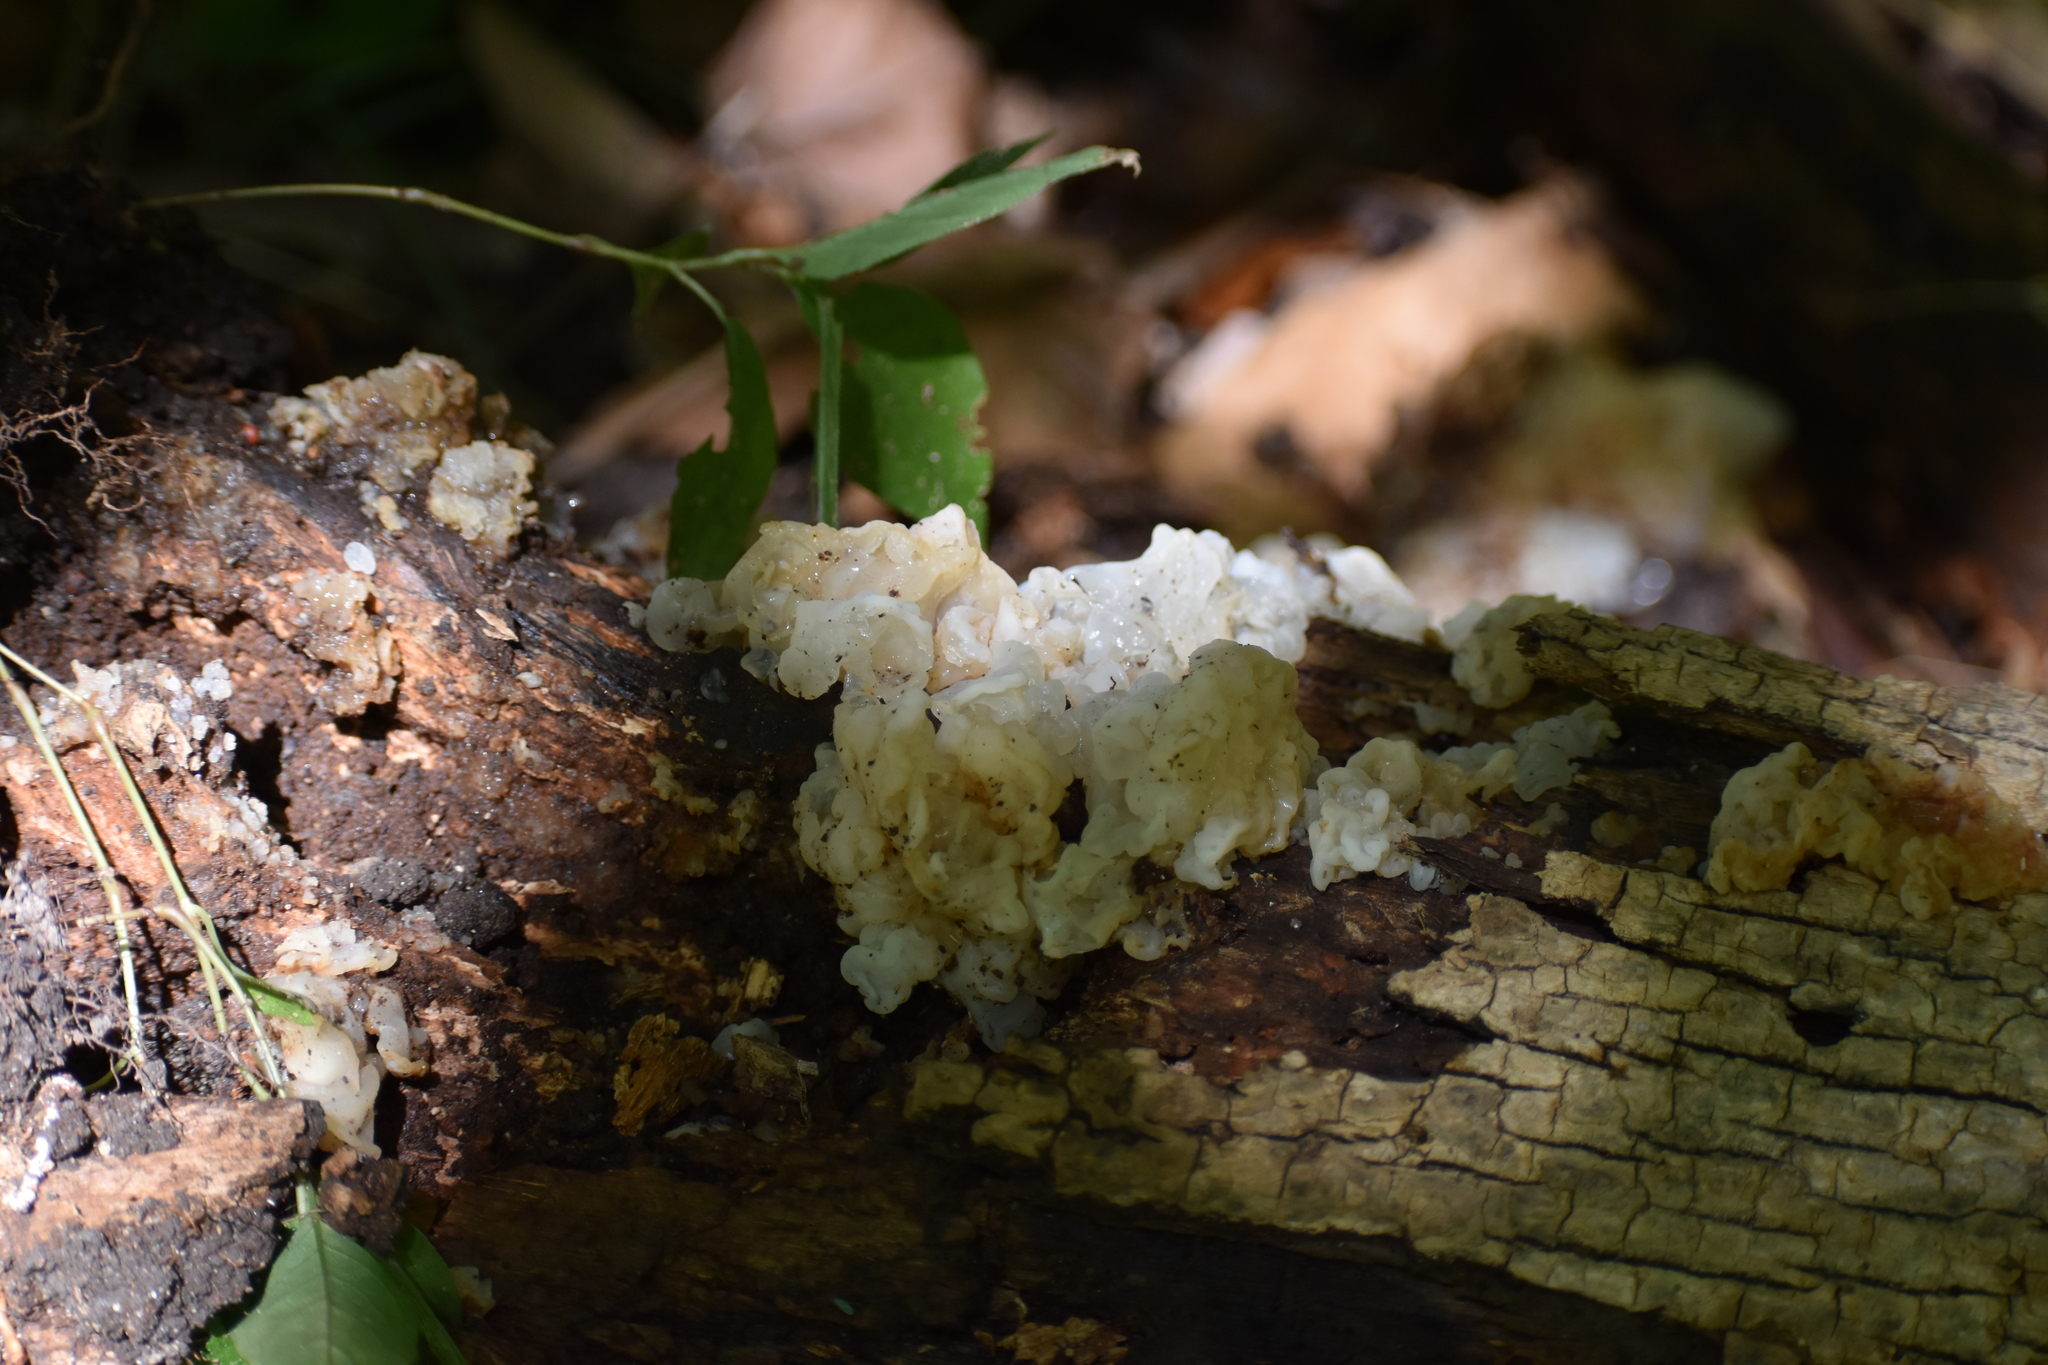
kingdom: Fungi
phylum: Basidiomycota
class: Agaricomycetes
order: Auriculariales
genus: Ductifera
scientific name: Ductifera pululahuana
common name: White jelly fungus
